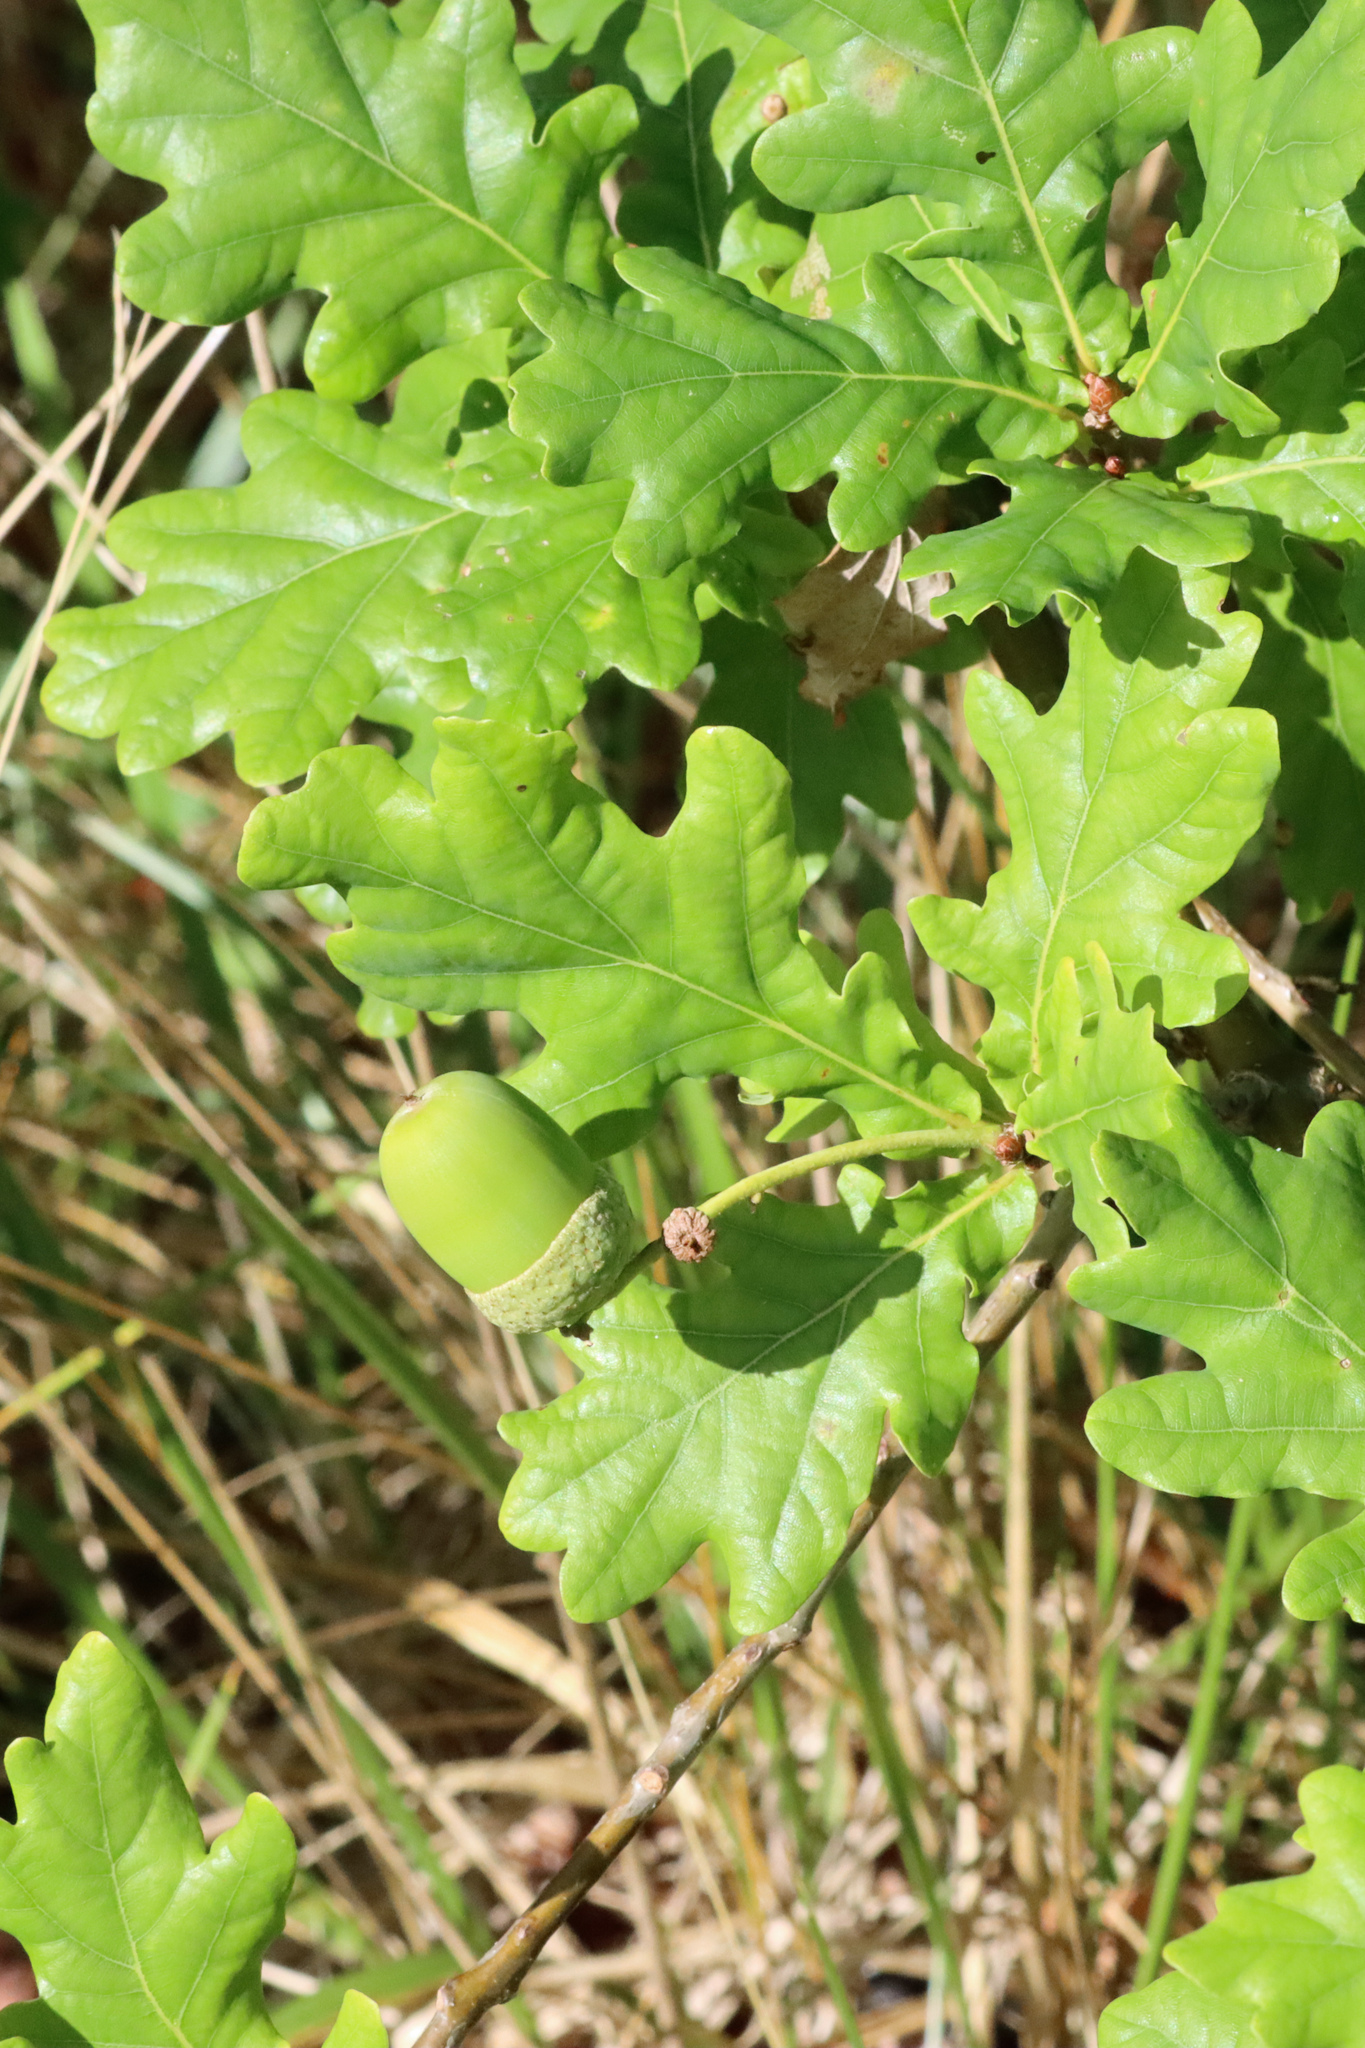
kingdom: Plantae
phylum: Tracheophyta
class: Magnoliopsida
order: Fagales
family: Fagaceae
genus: Quercus
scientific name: Quercus robur
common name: Pedunculate oak
